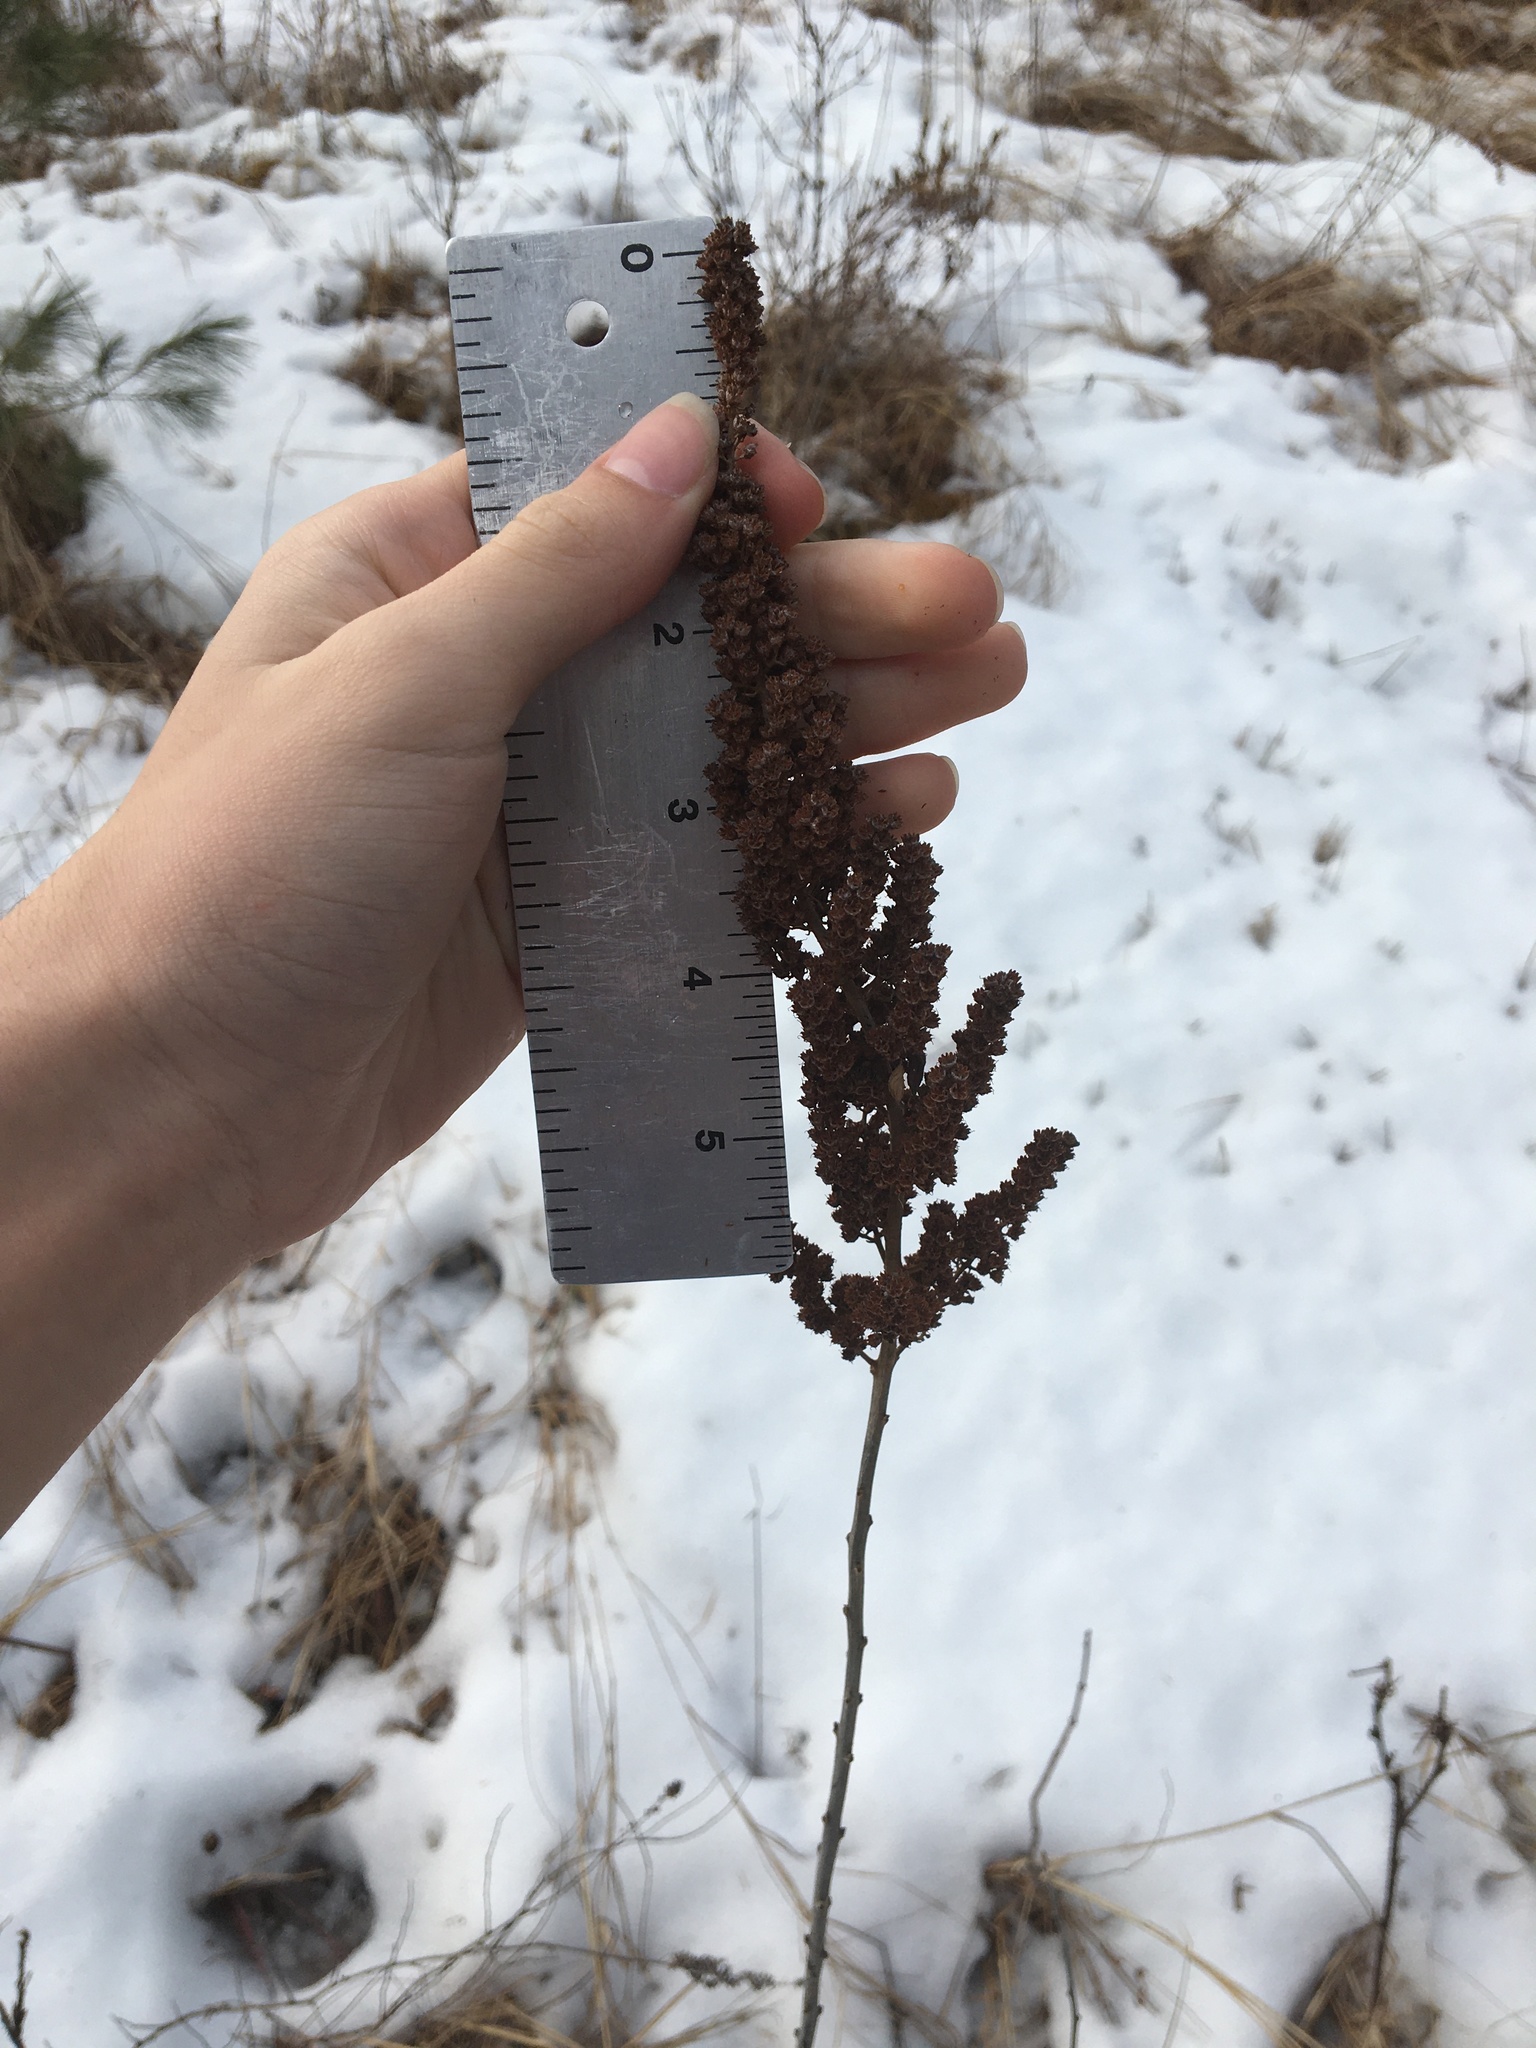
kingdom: Plantae
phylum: Tracheophyta
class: Magnoliopsida
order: Rosales
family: Rosaceae
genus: Spiraea
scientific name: Spiraea tomentosa
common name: Hardhack
